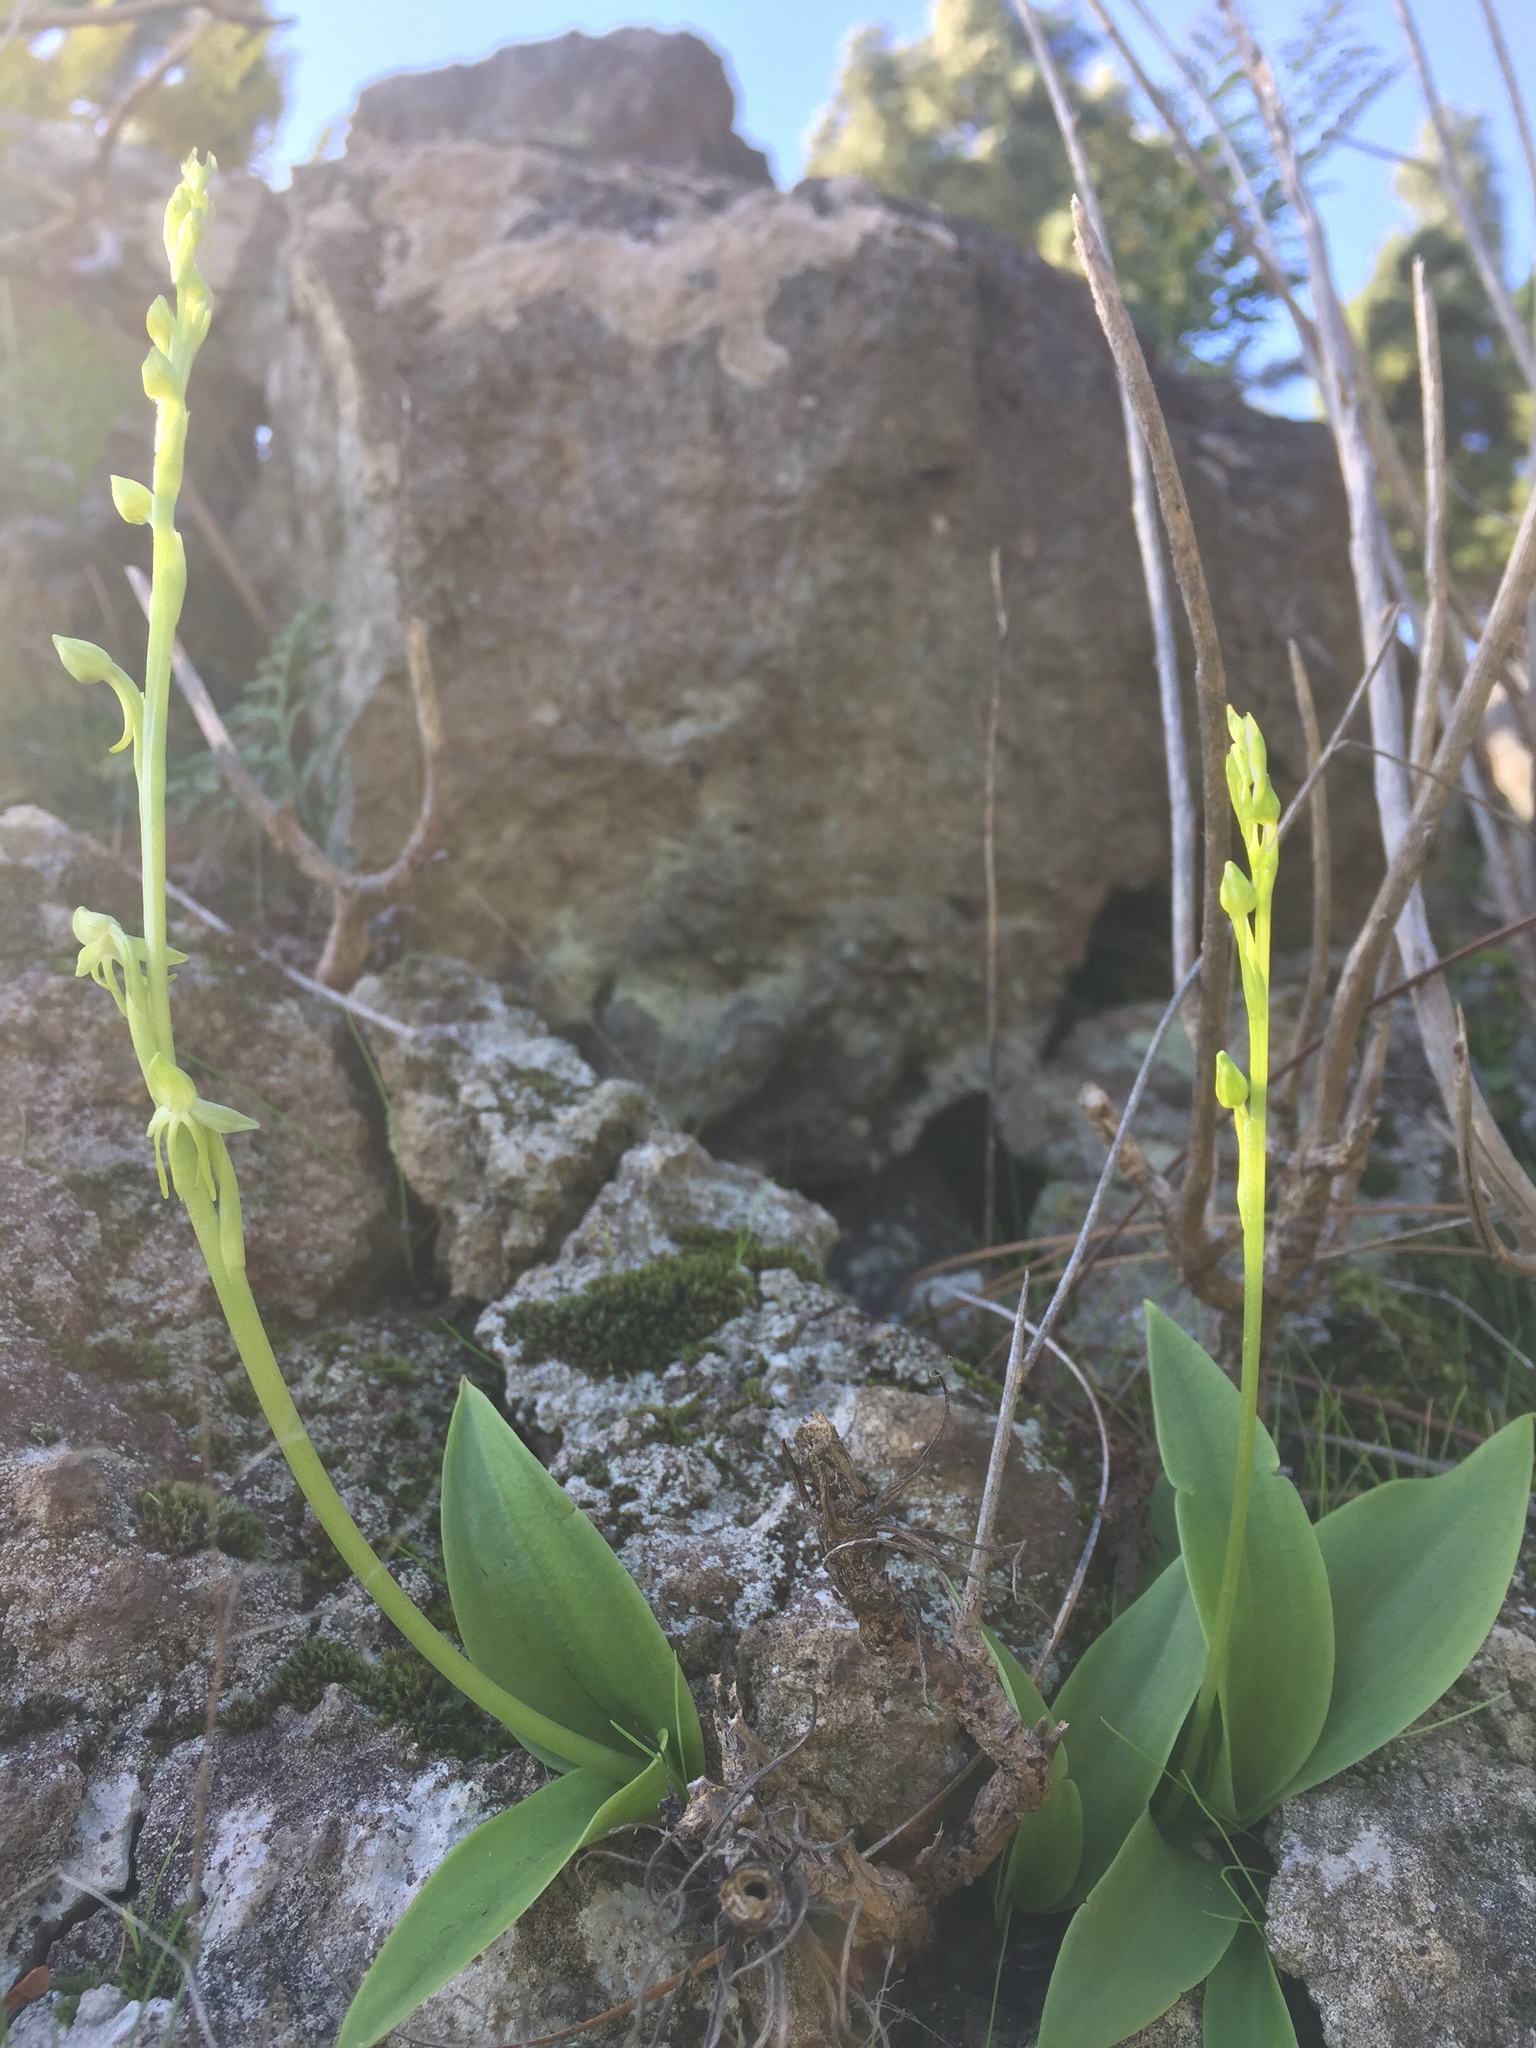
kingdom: Plantae
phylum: Tracheophyta
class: Liliopsida
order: Asparagales
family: Orchidaceae
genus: Habenaria
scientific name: Habenaria tridactylites
